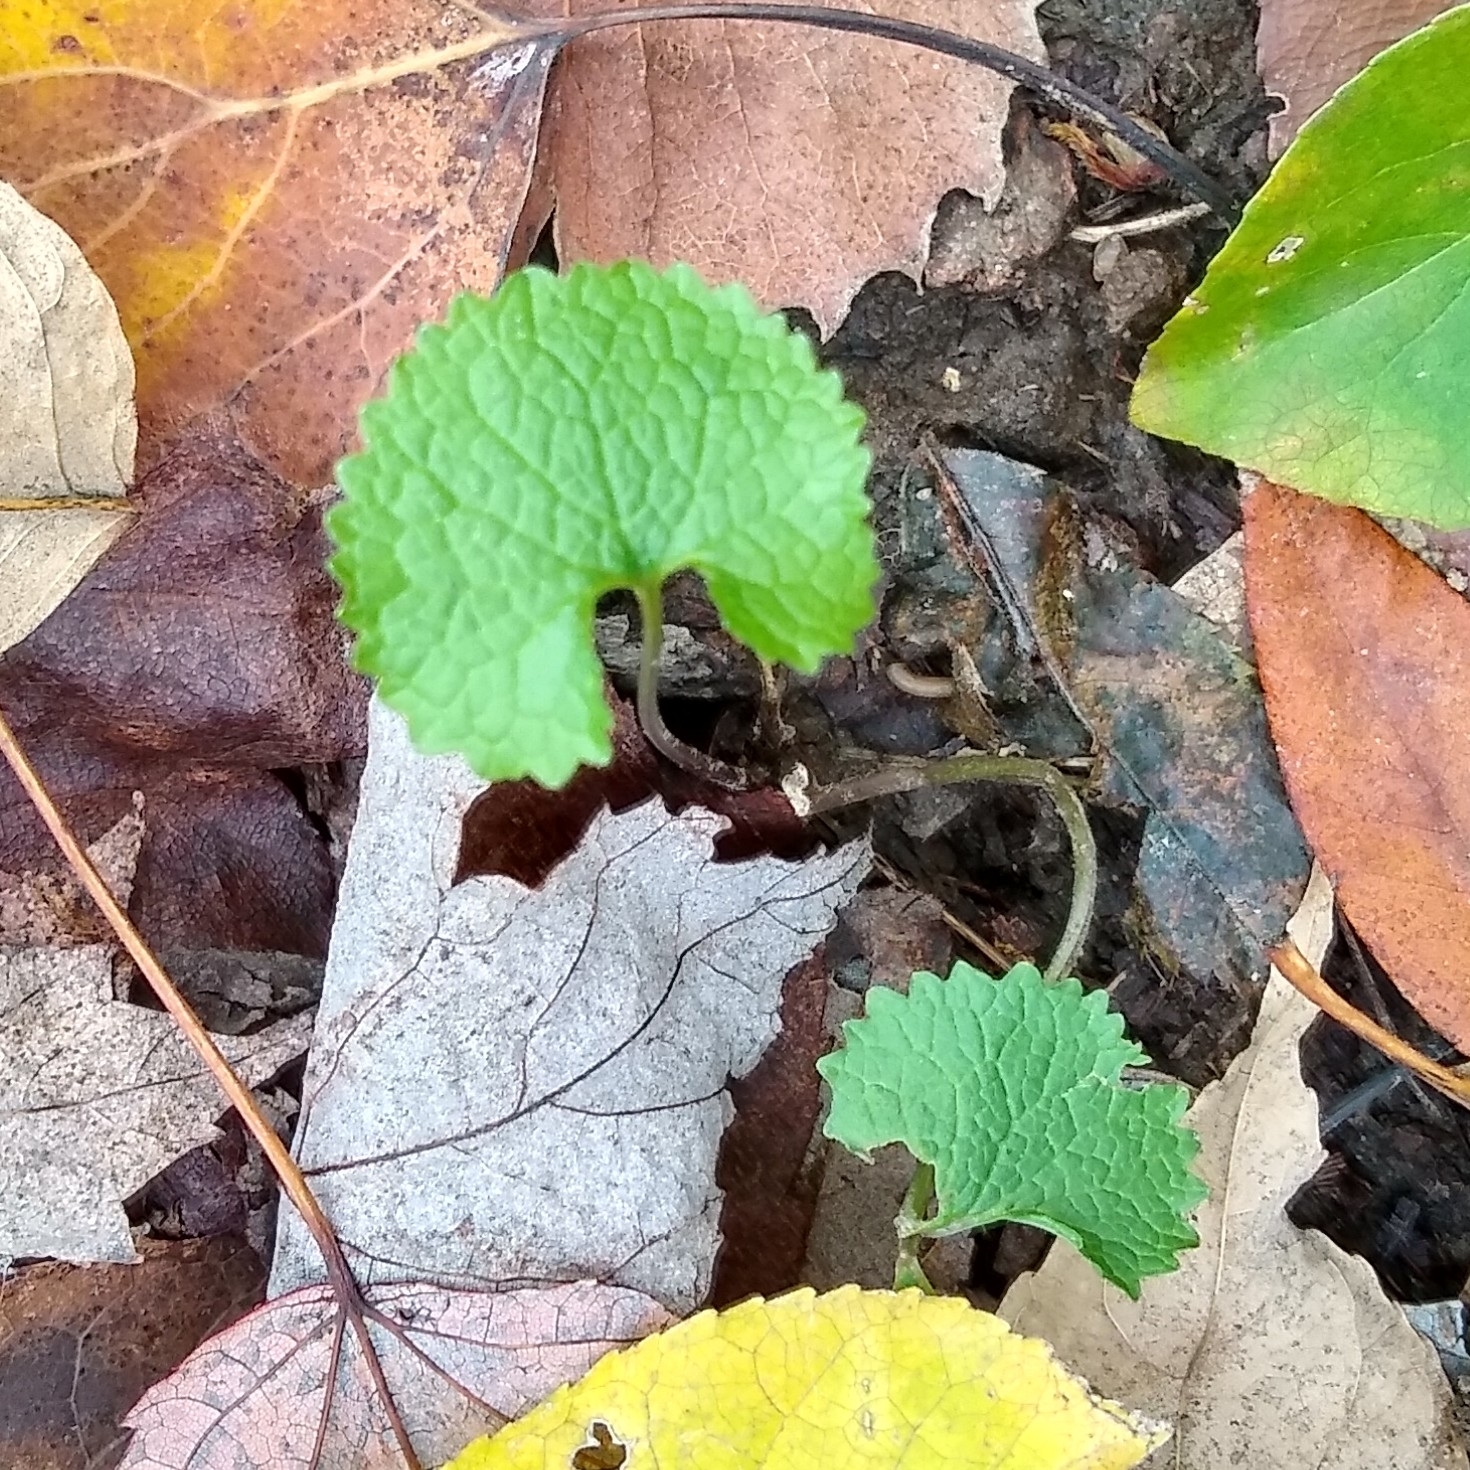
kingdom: Plantae
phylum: Tracheophyta
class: Magnoliopsida
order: Brassicales
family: Brassicaceae
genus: Alliaria
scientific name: Alliaria petiolata
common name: Garlic mustard
